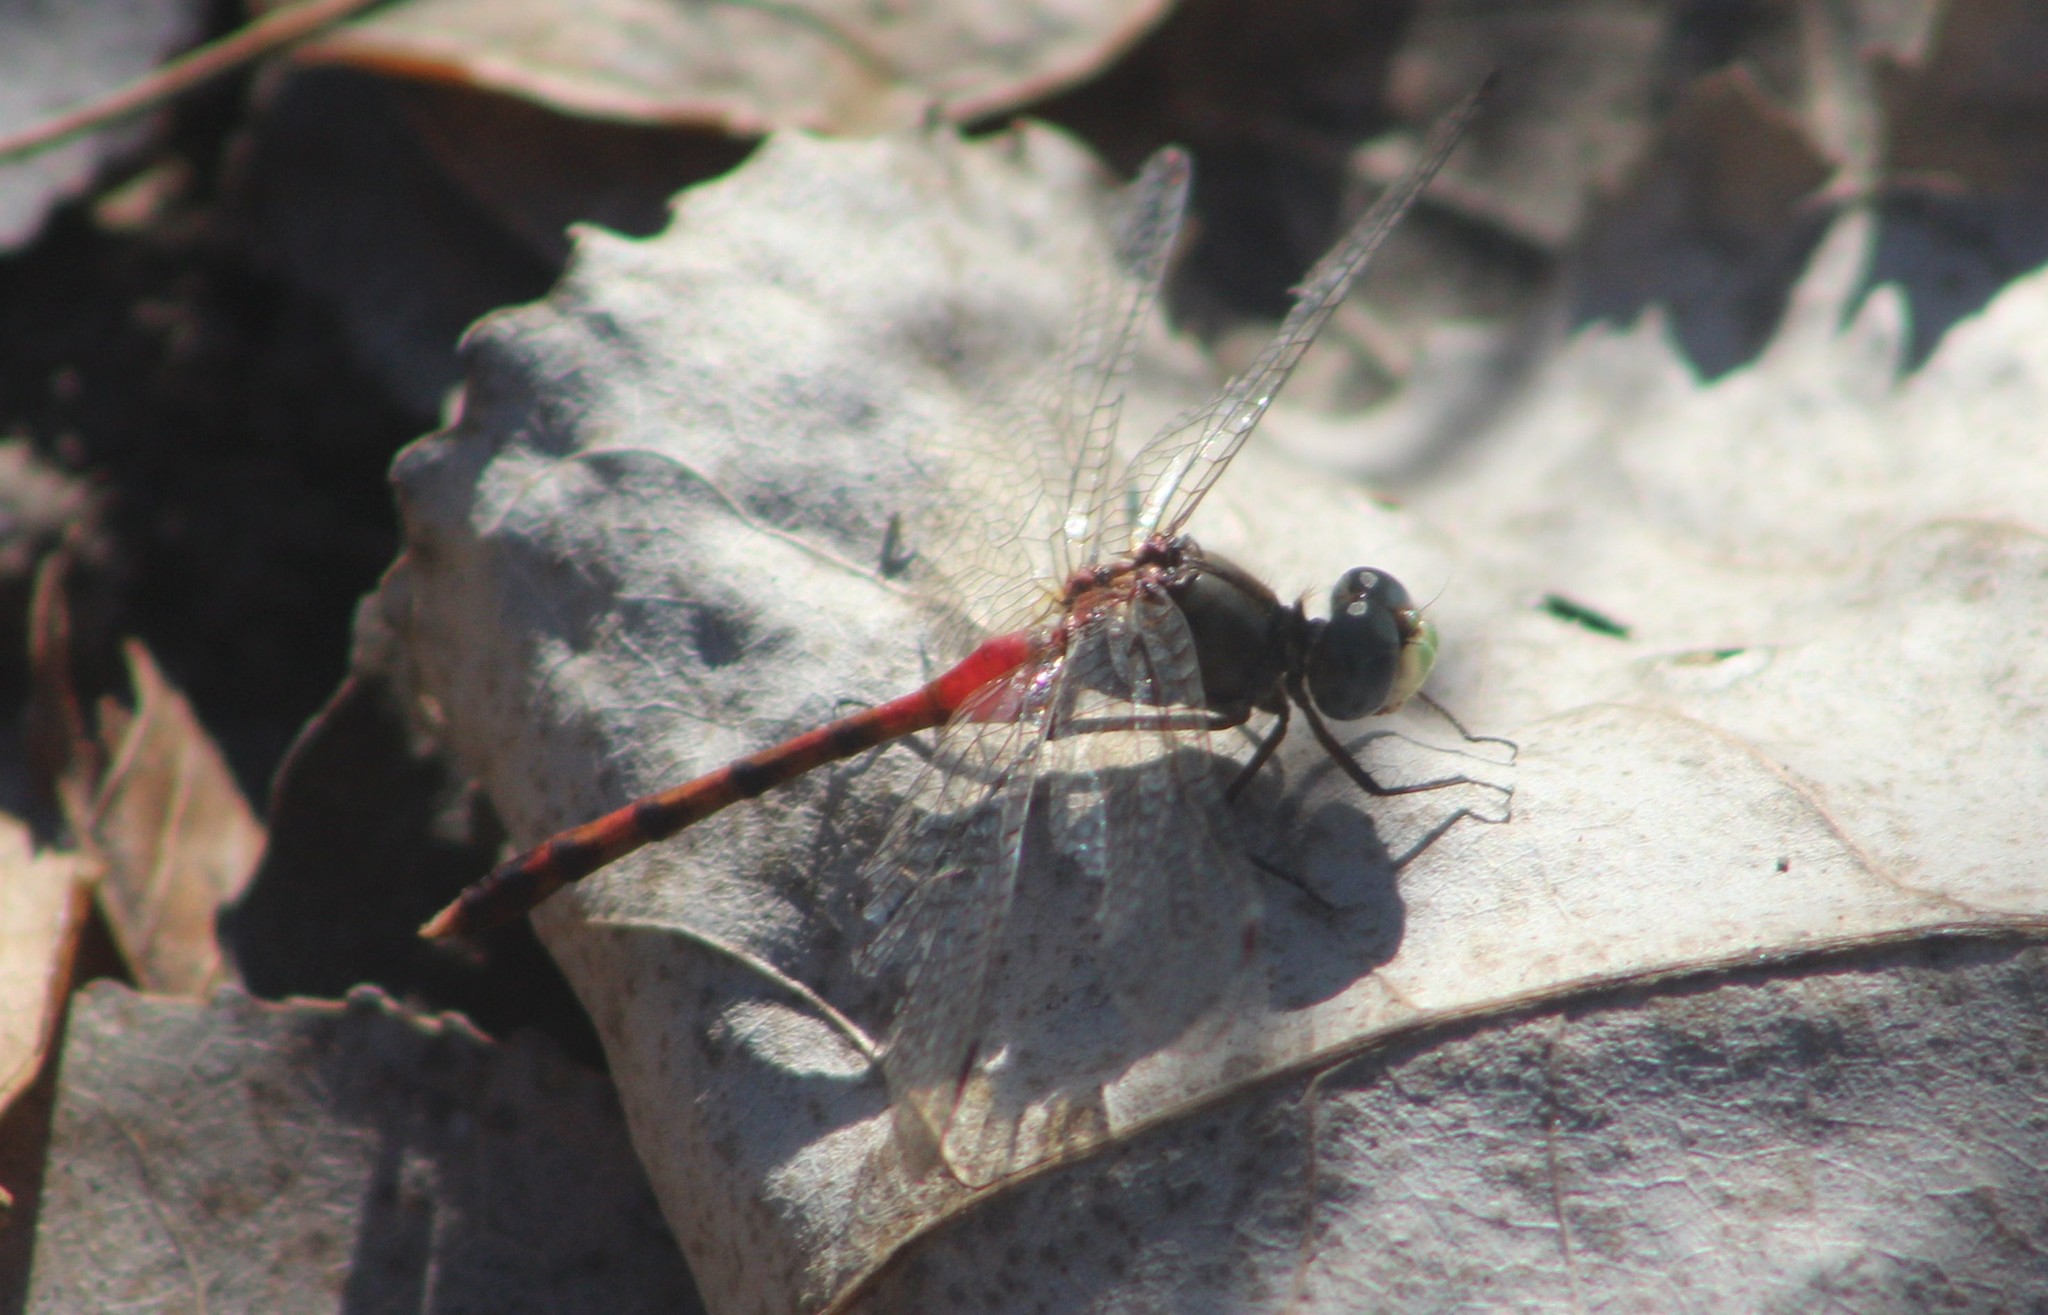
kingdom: Animalia
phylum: Arthropoda
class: Insecta
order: Odonata
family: Libellulidae
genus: Sympetrum
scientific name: Sympetrum ambiguum
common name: Blue-faced meadowhawk
